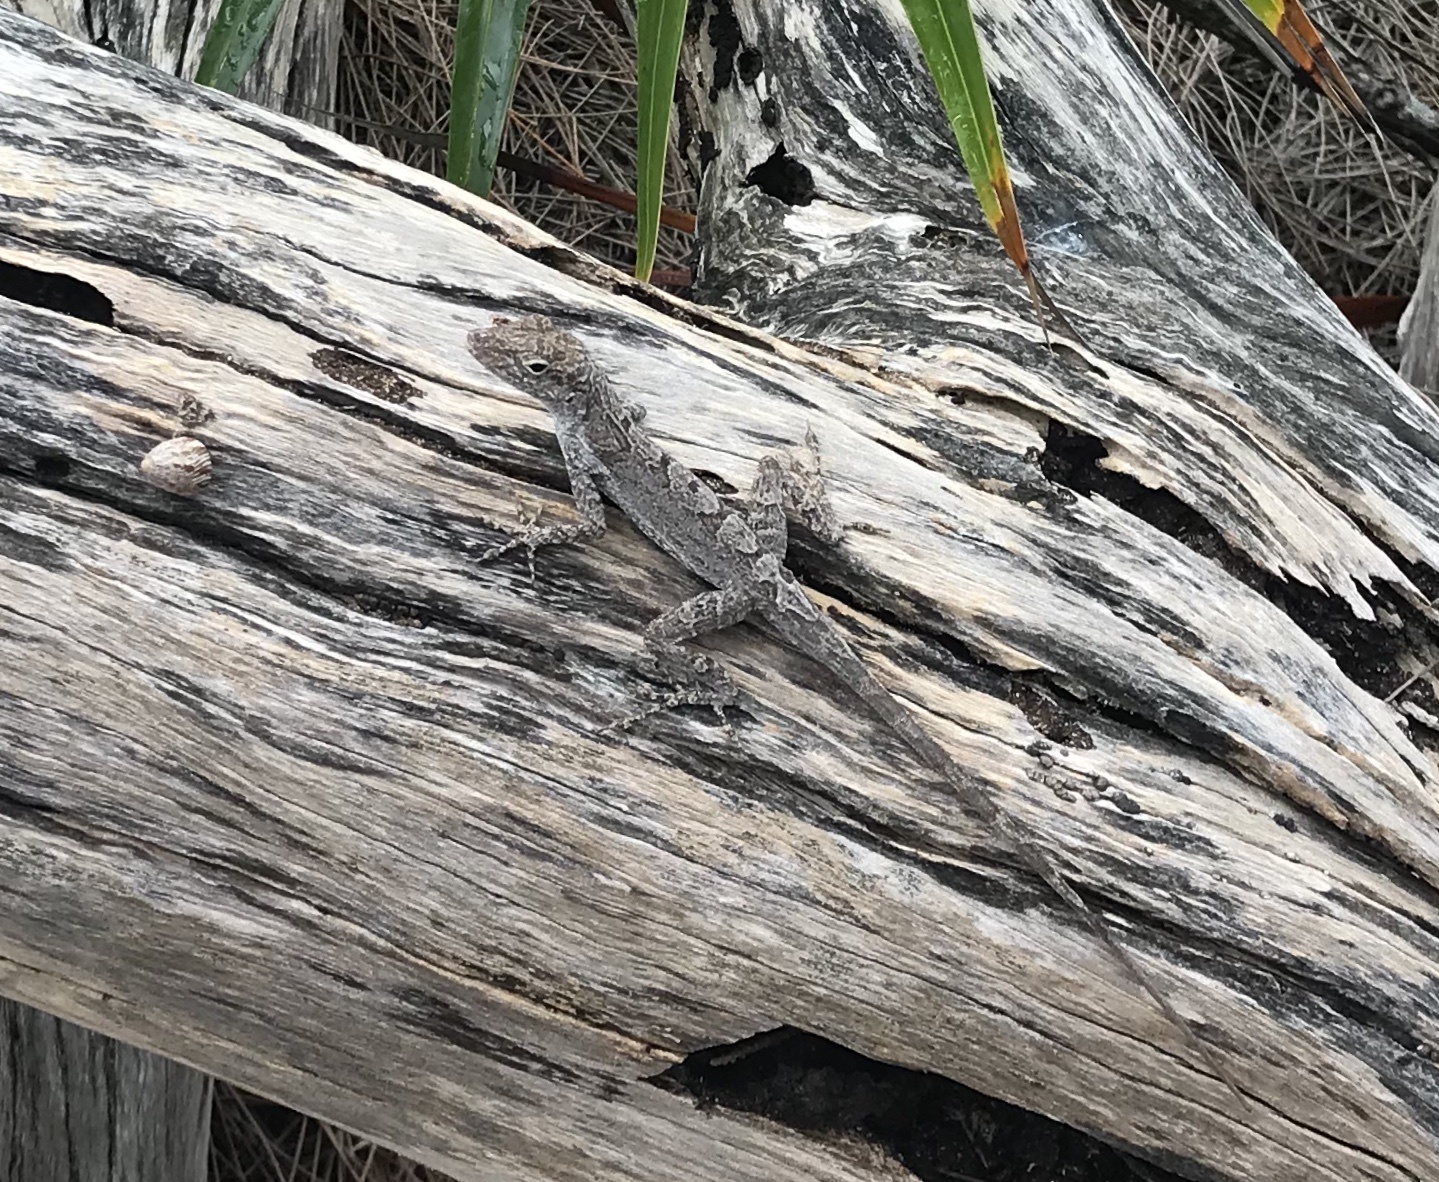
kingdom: Animalia
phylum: Chordata
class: Squamata
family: Dactyloidae
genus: Anolis
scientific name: Anolis scriptus
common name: Silver key anole
